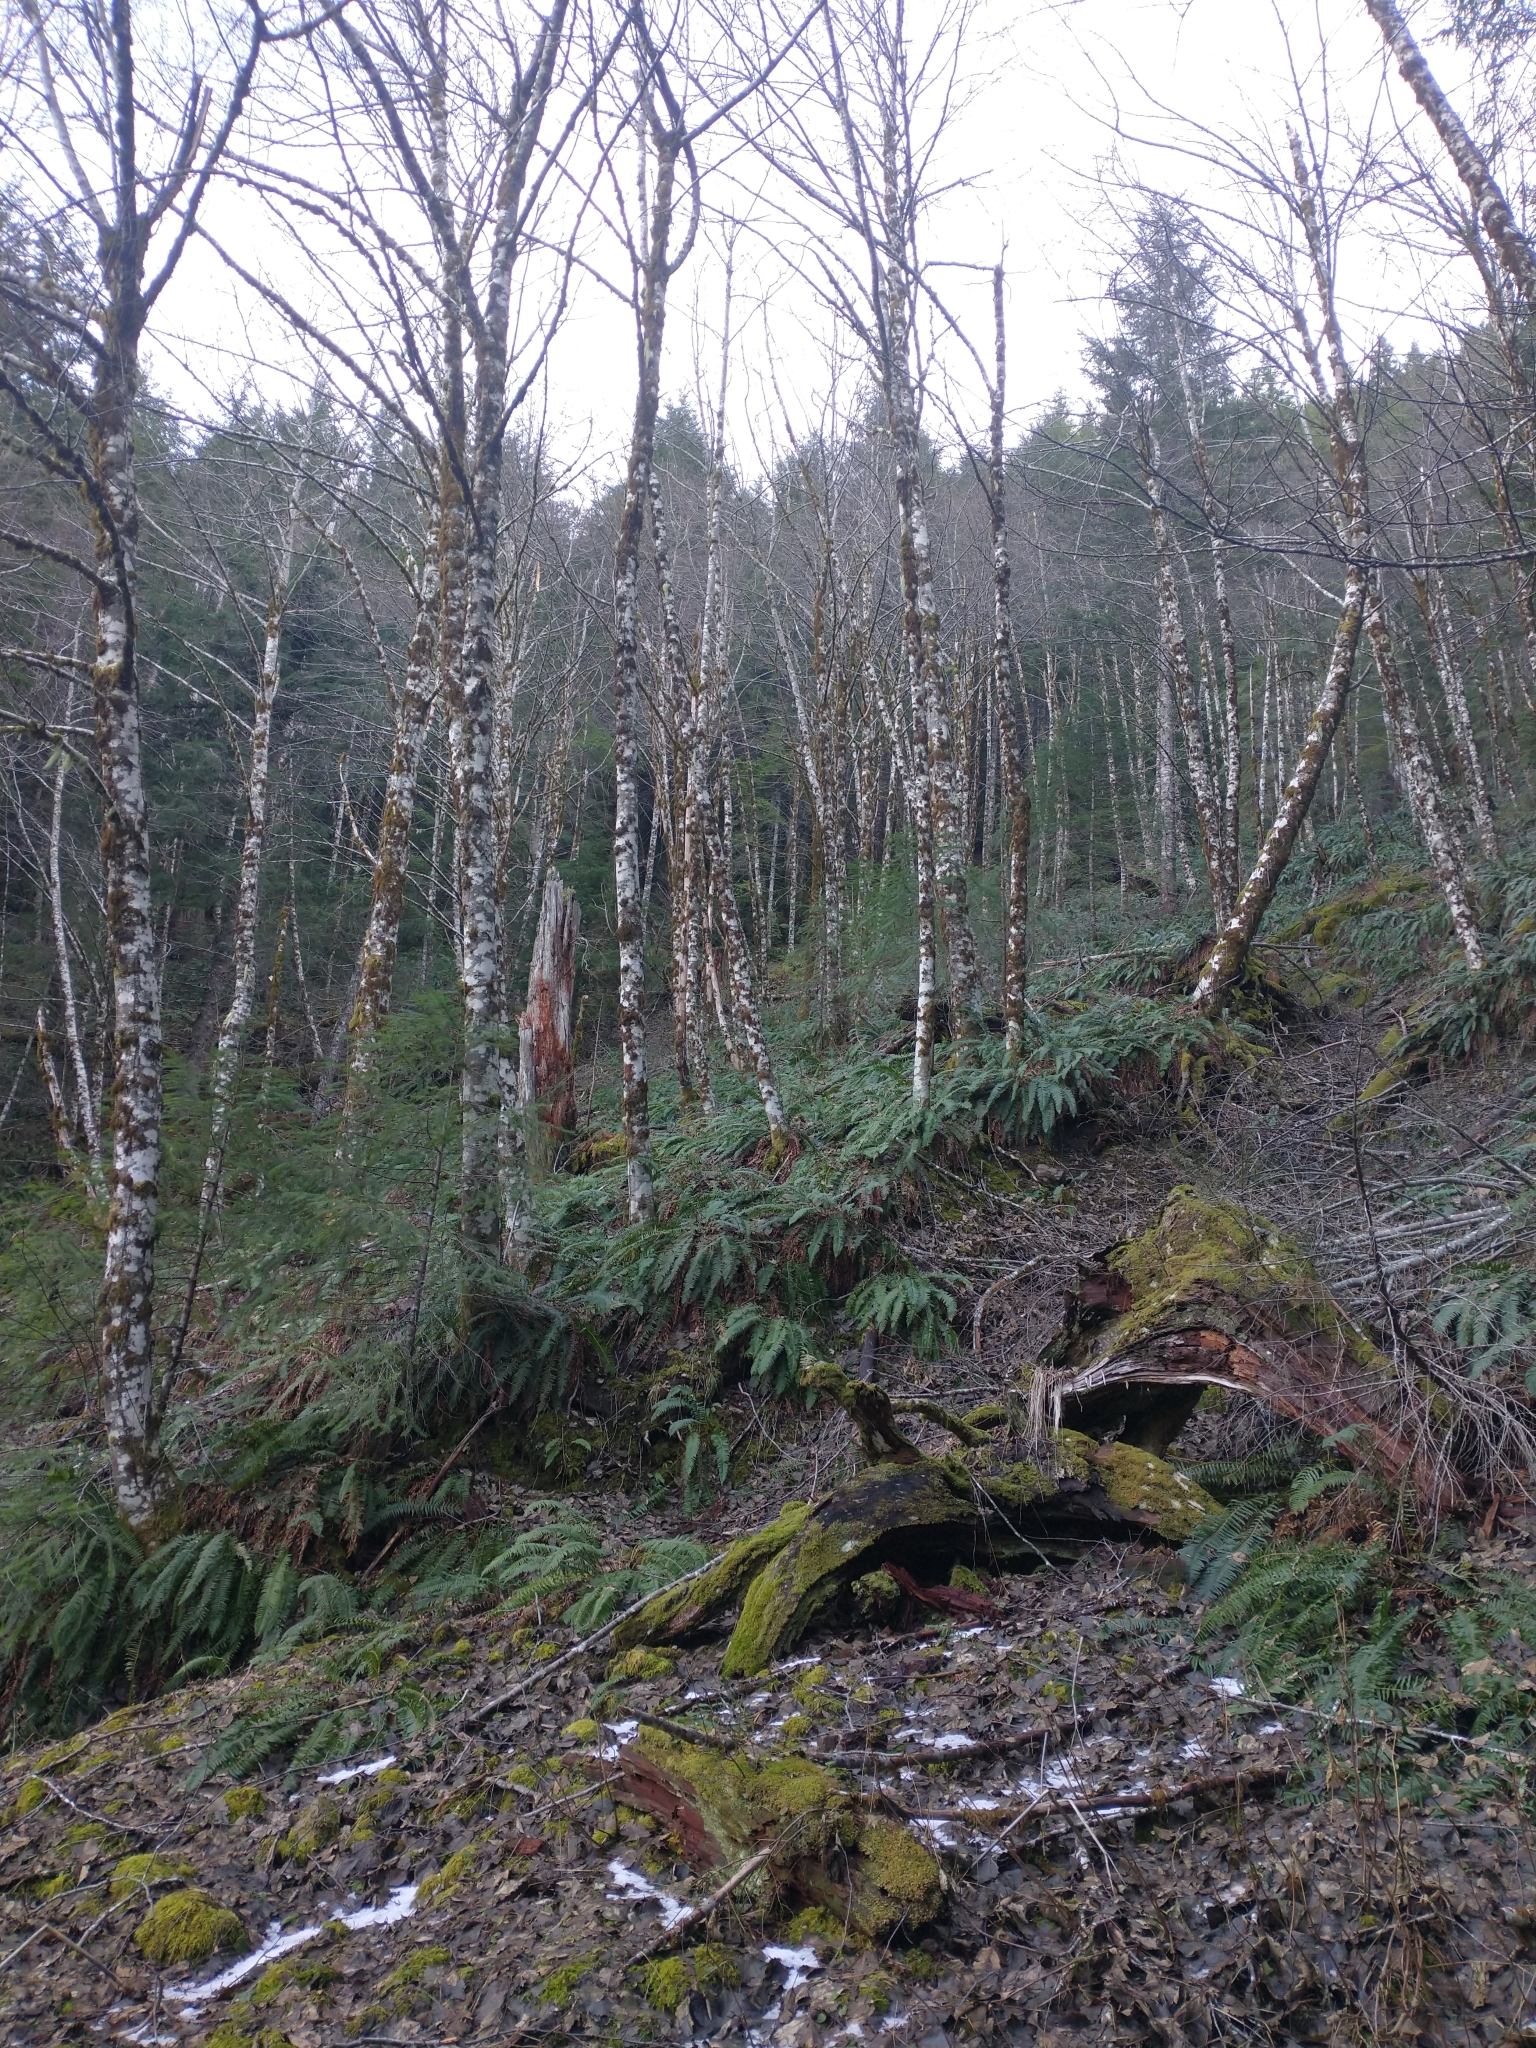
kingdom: Plantae
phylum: Tracheophyta
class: Magnoliopsida
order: Fagales
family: Betulaceae
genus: Alnus
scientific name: Alnus rubra
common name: Red alder
